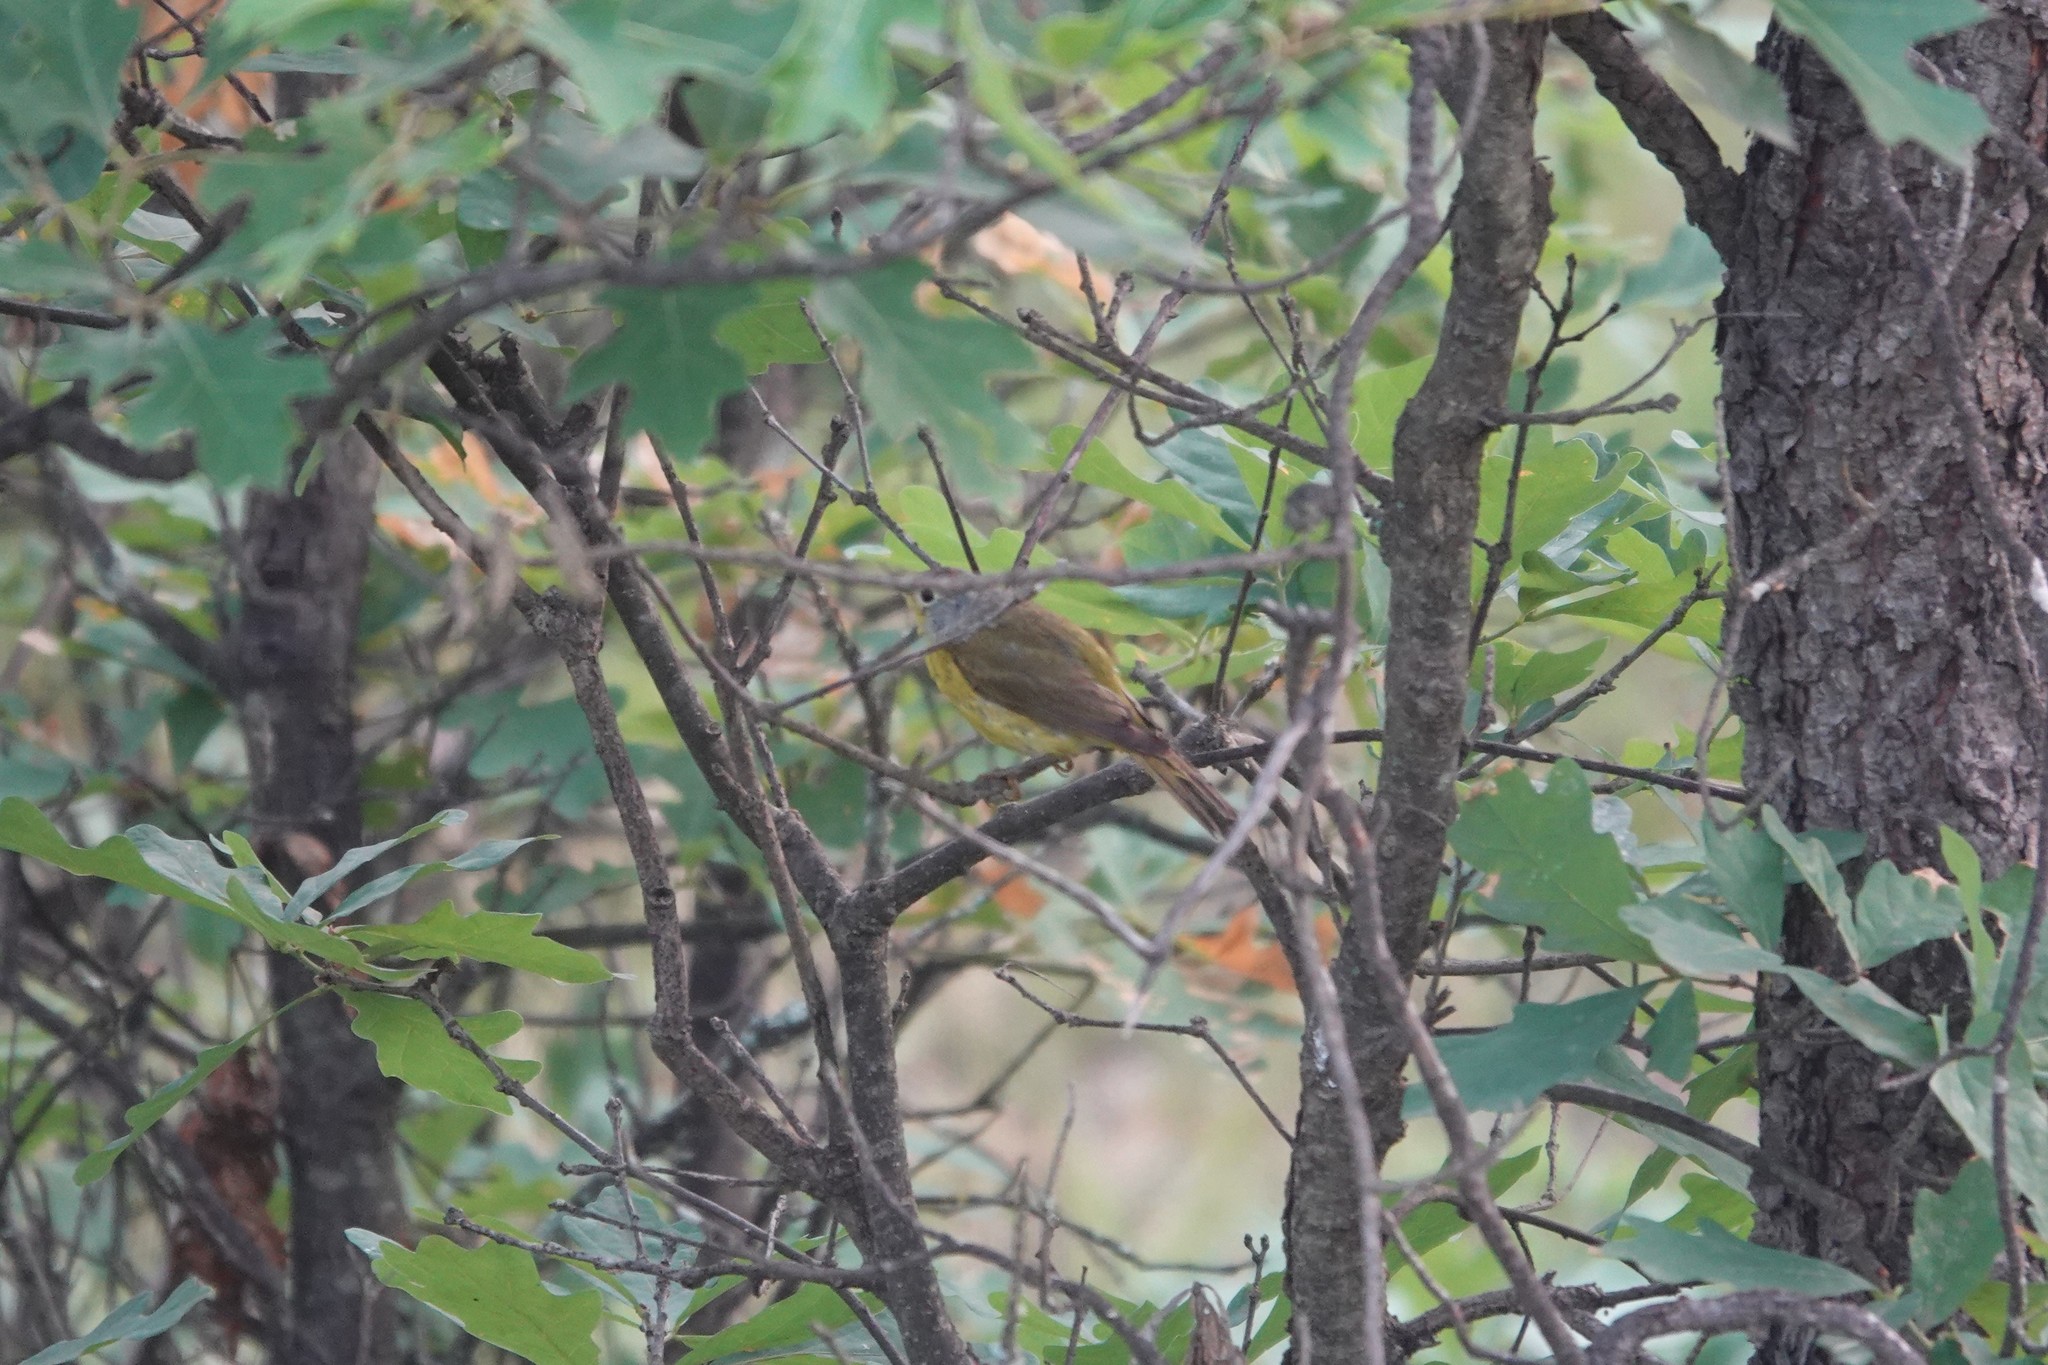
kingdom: Animalia
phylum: Chordata
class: Aves
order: Passeriformes
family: Parulidae
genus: Leiothlypis
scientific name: Leiothlypis ruficapilla
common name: Nashville warbler
